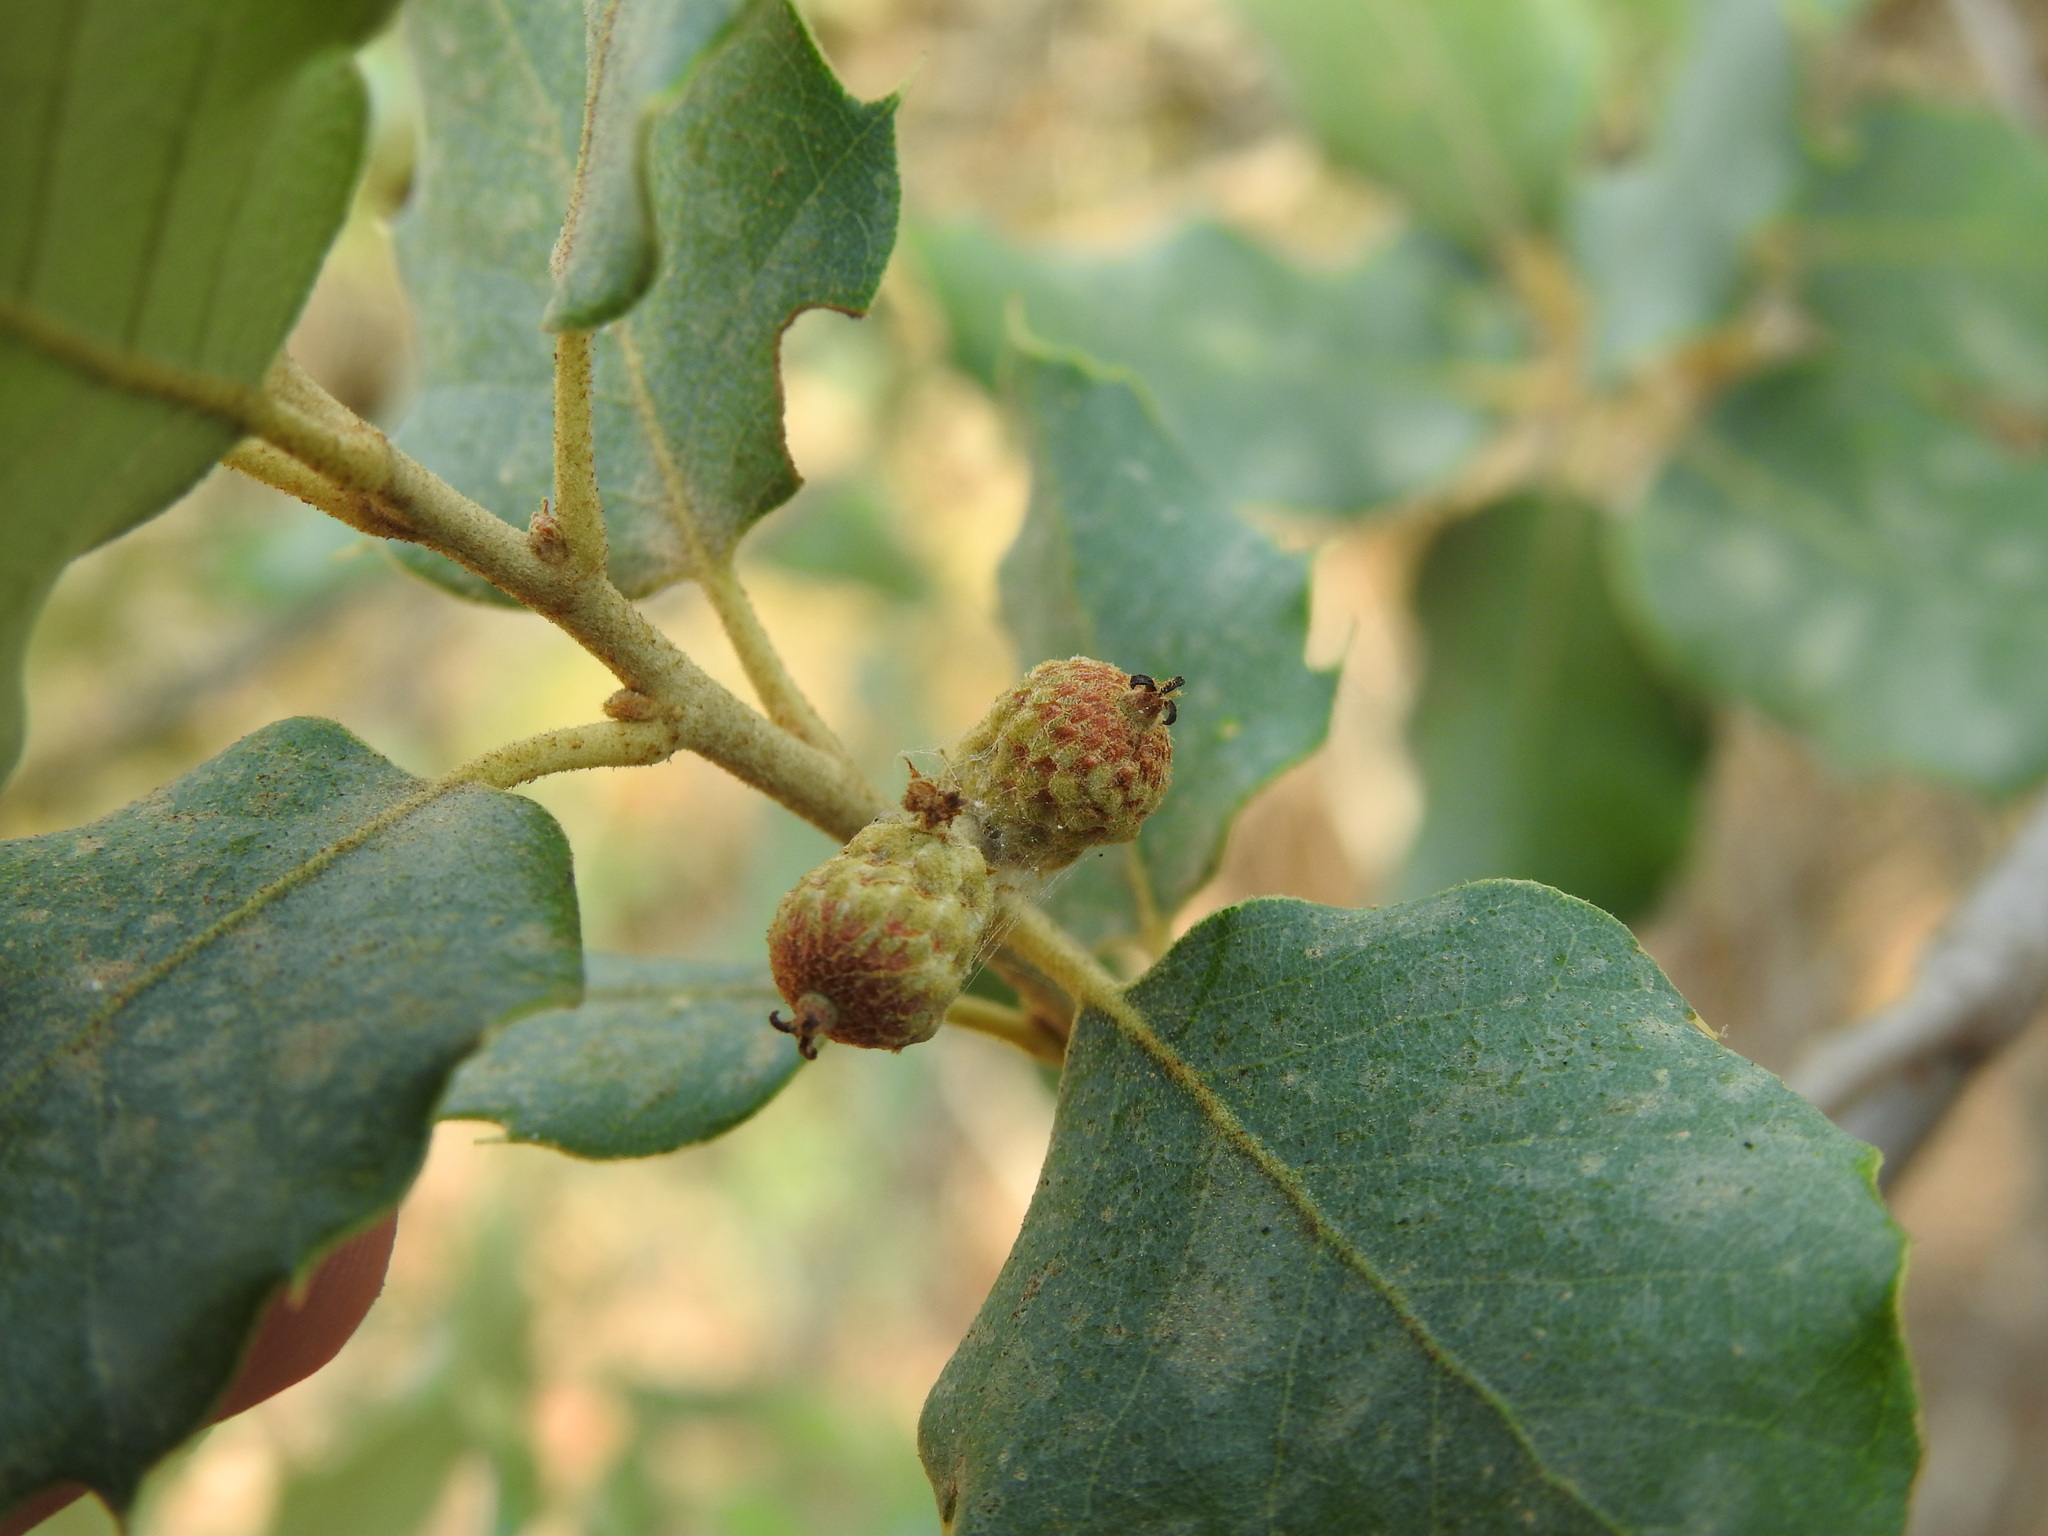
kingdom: Plantae
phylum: Tracheophyta
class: Magnoliopsida
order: Fagales
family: Fagaceae
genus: Quercus
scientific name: Quercus avellaniformis
